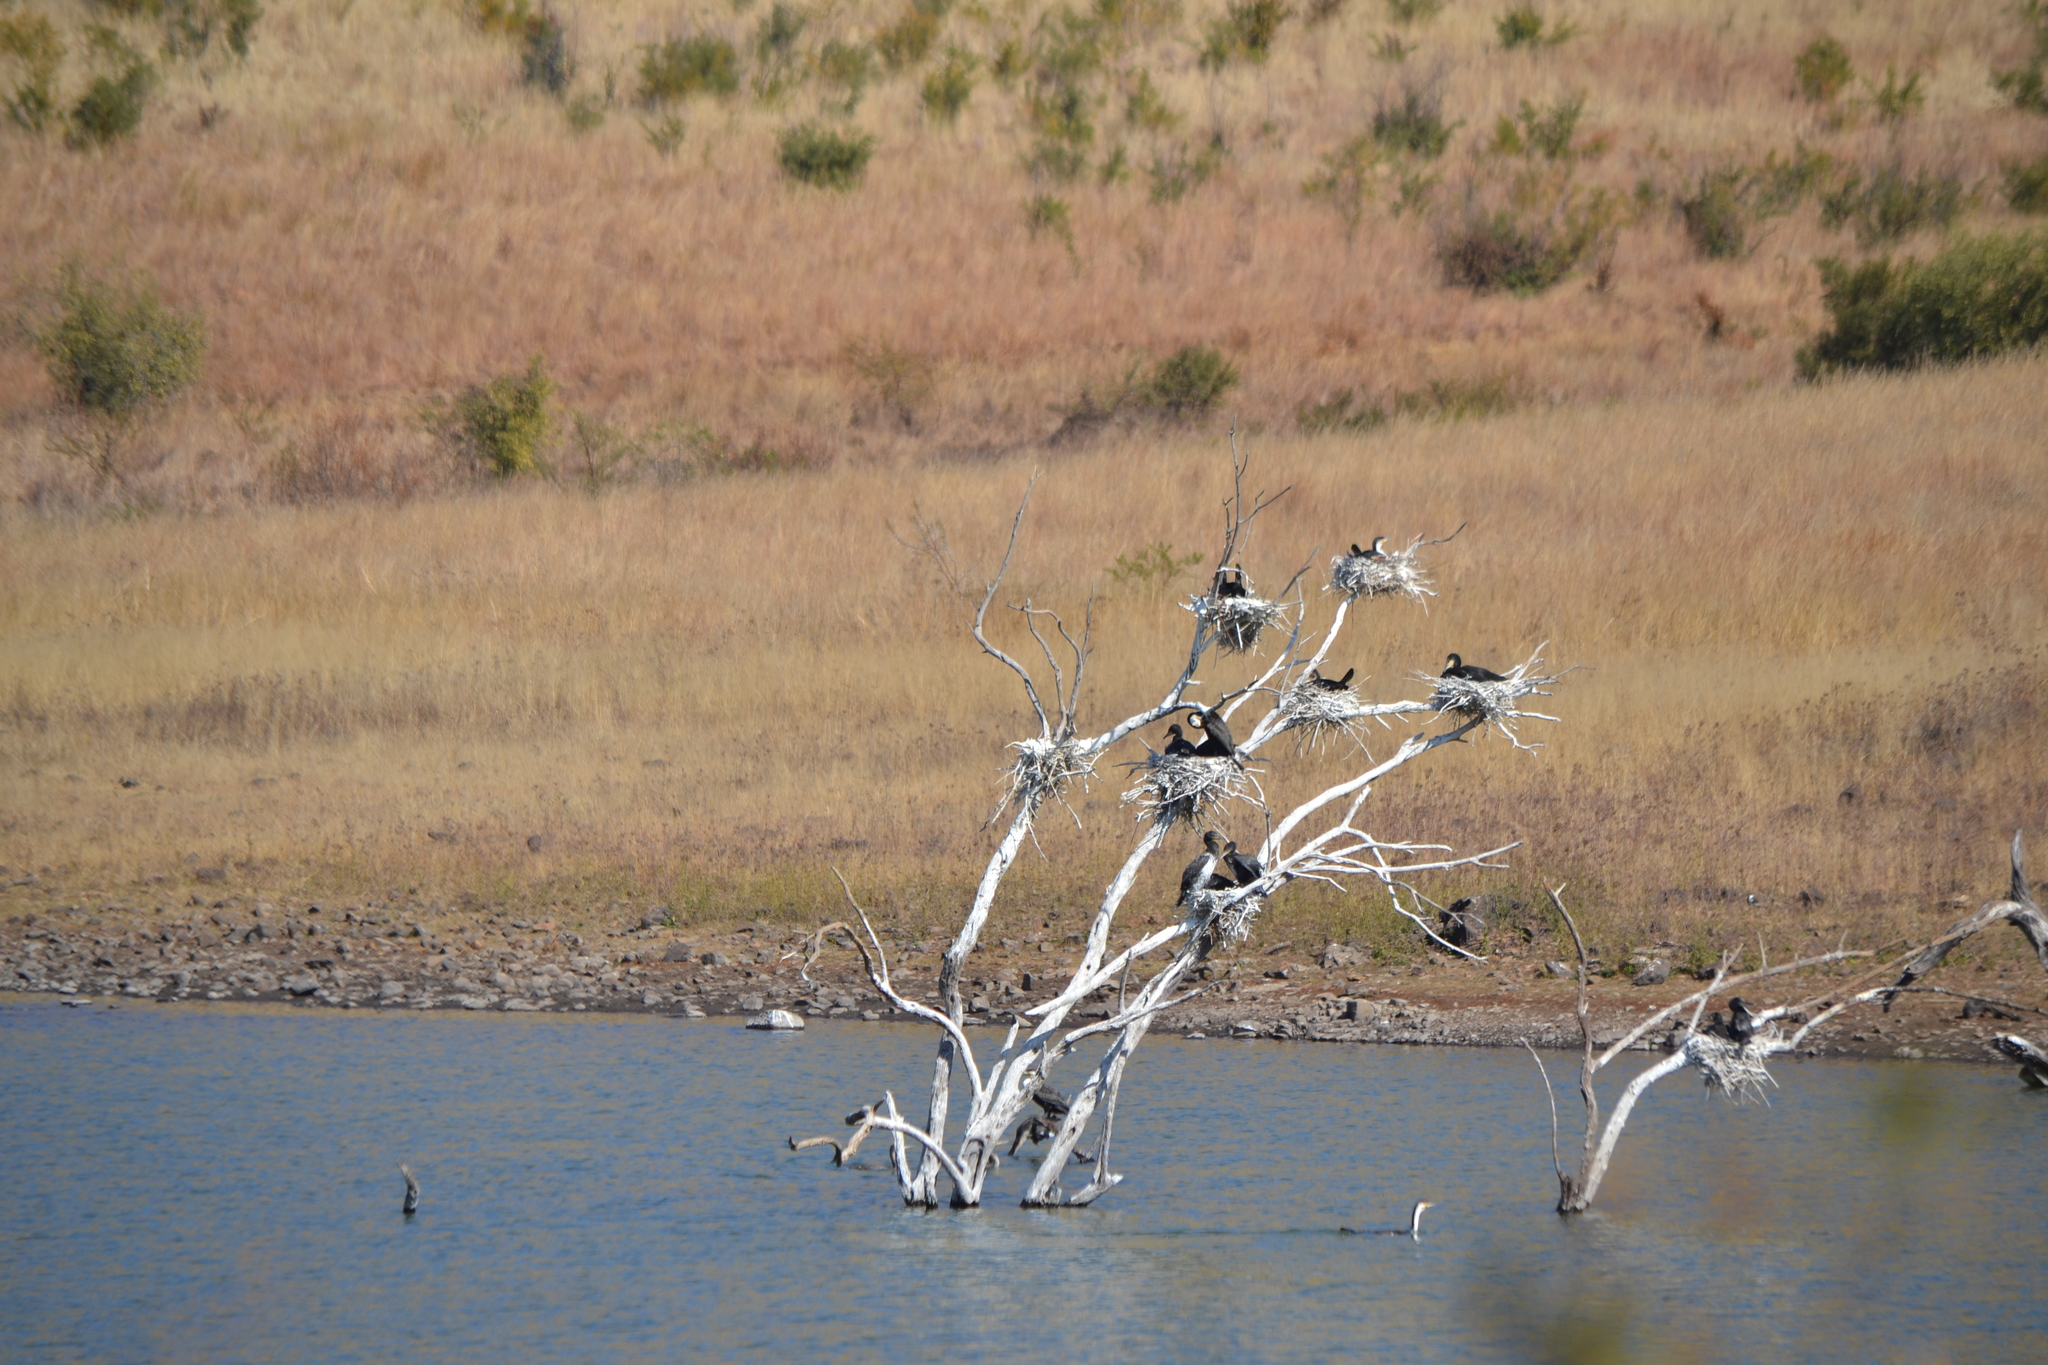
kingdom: Animalia
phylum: Chordata
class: Aves
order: Suliformes
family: Phalacrocoracidae
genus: Phalacrocorax
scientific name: Phalacrocorax carbo
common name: Great cormorant
